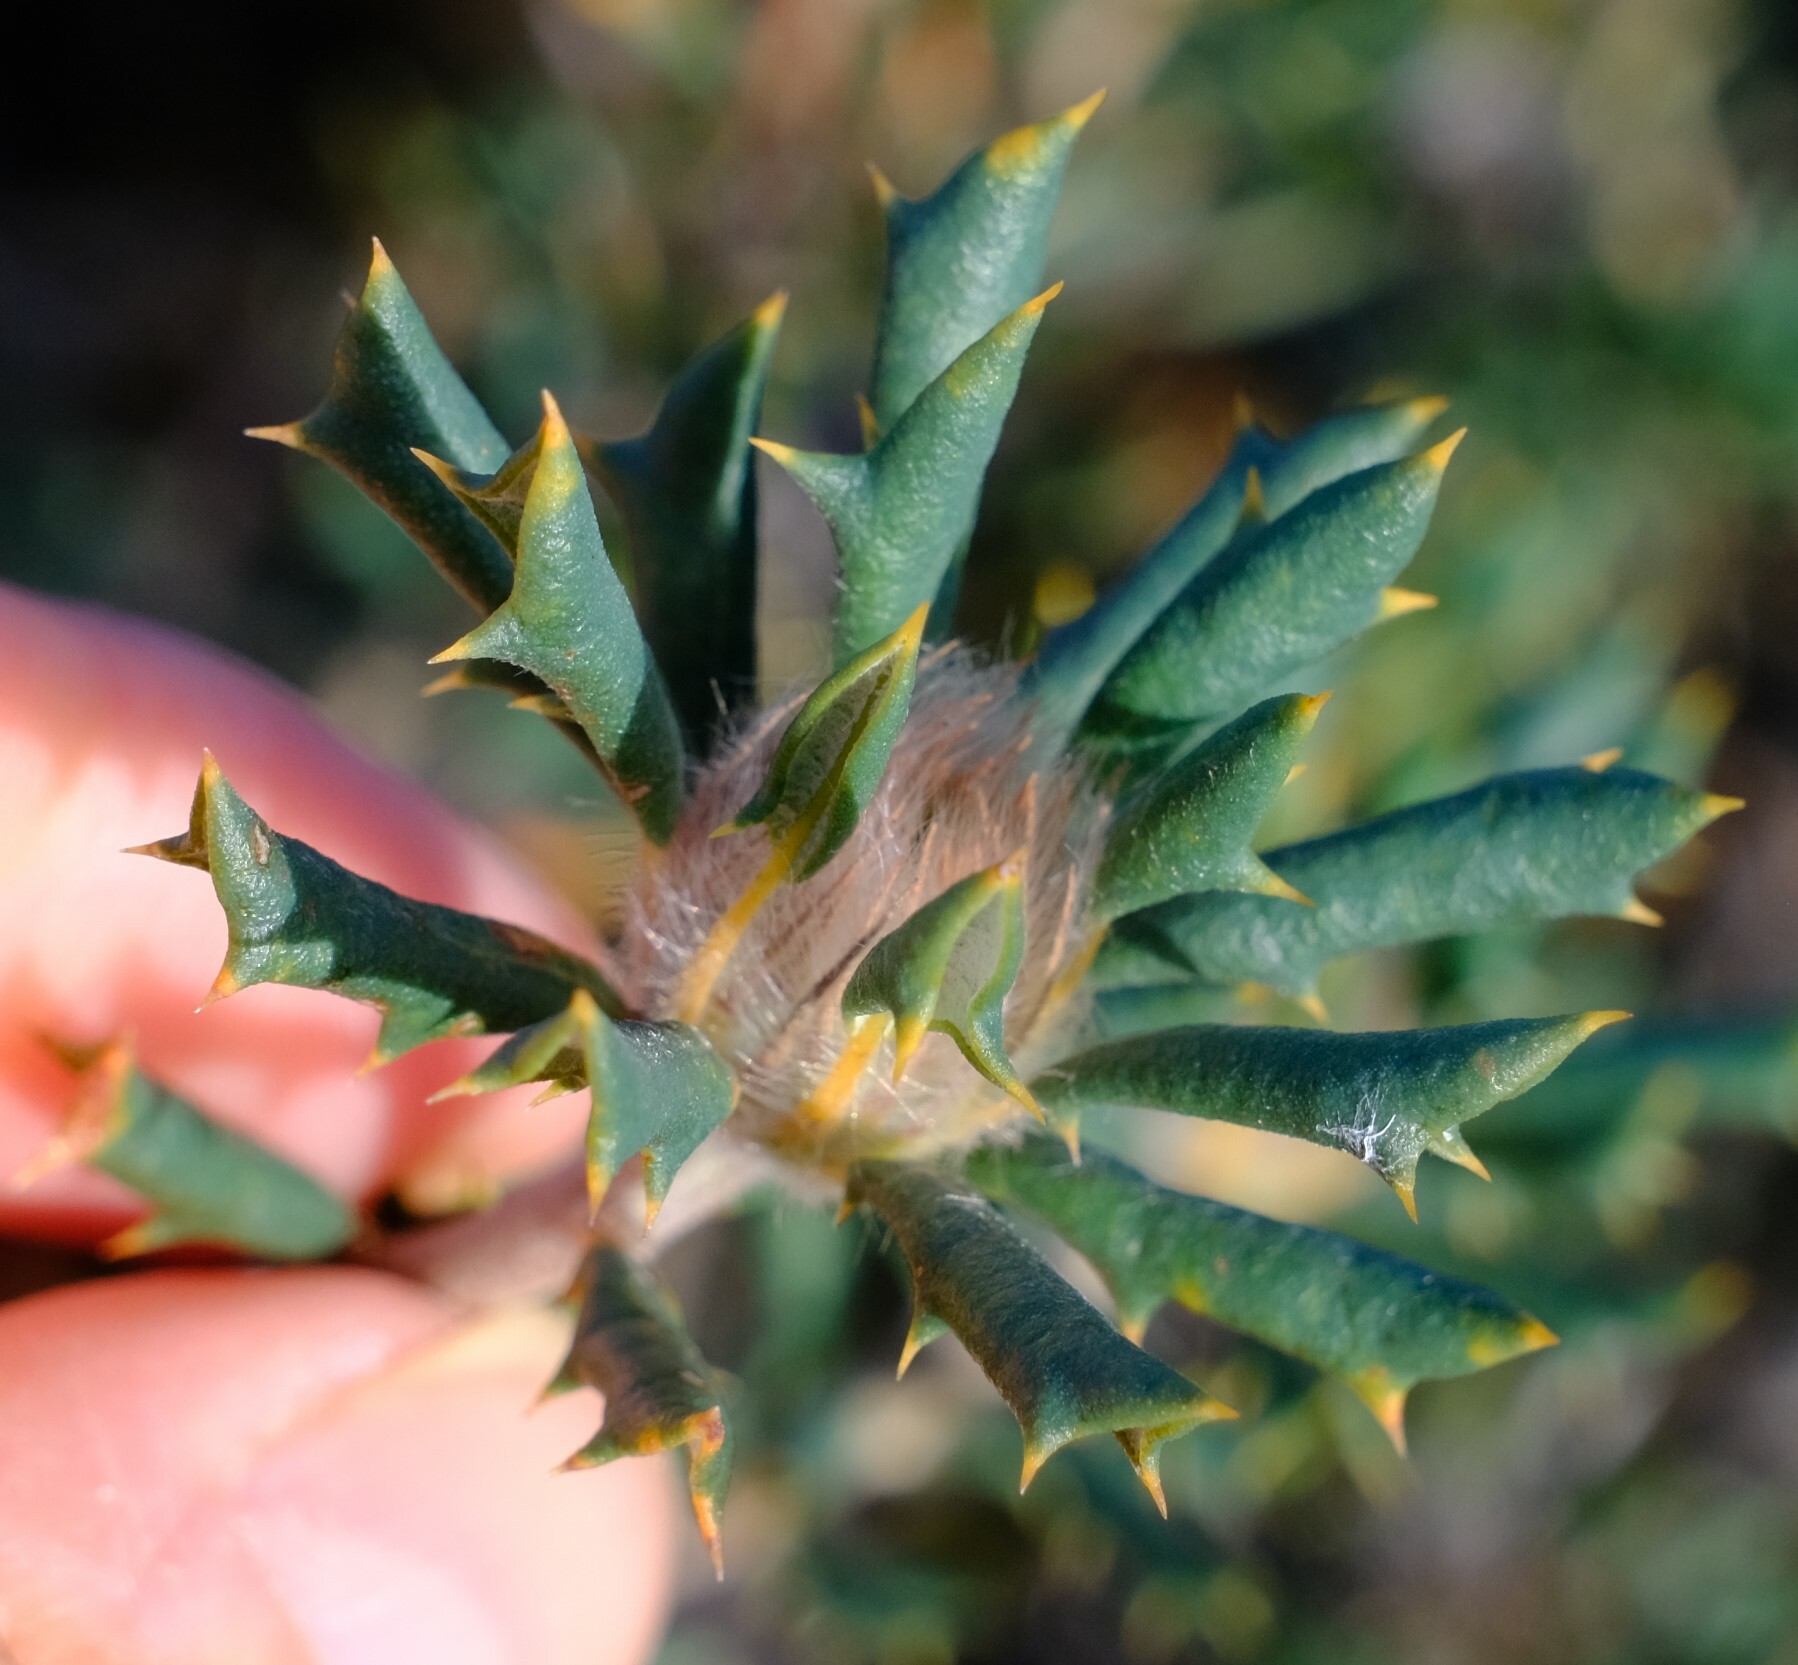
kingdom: Plantae
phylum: Tracheophyta
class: Magnoliopsida
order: Proteales
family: Proteaceae
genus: Banksia
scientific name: Banksia carlinoides
